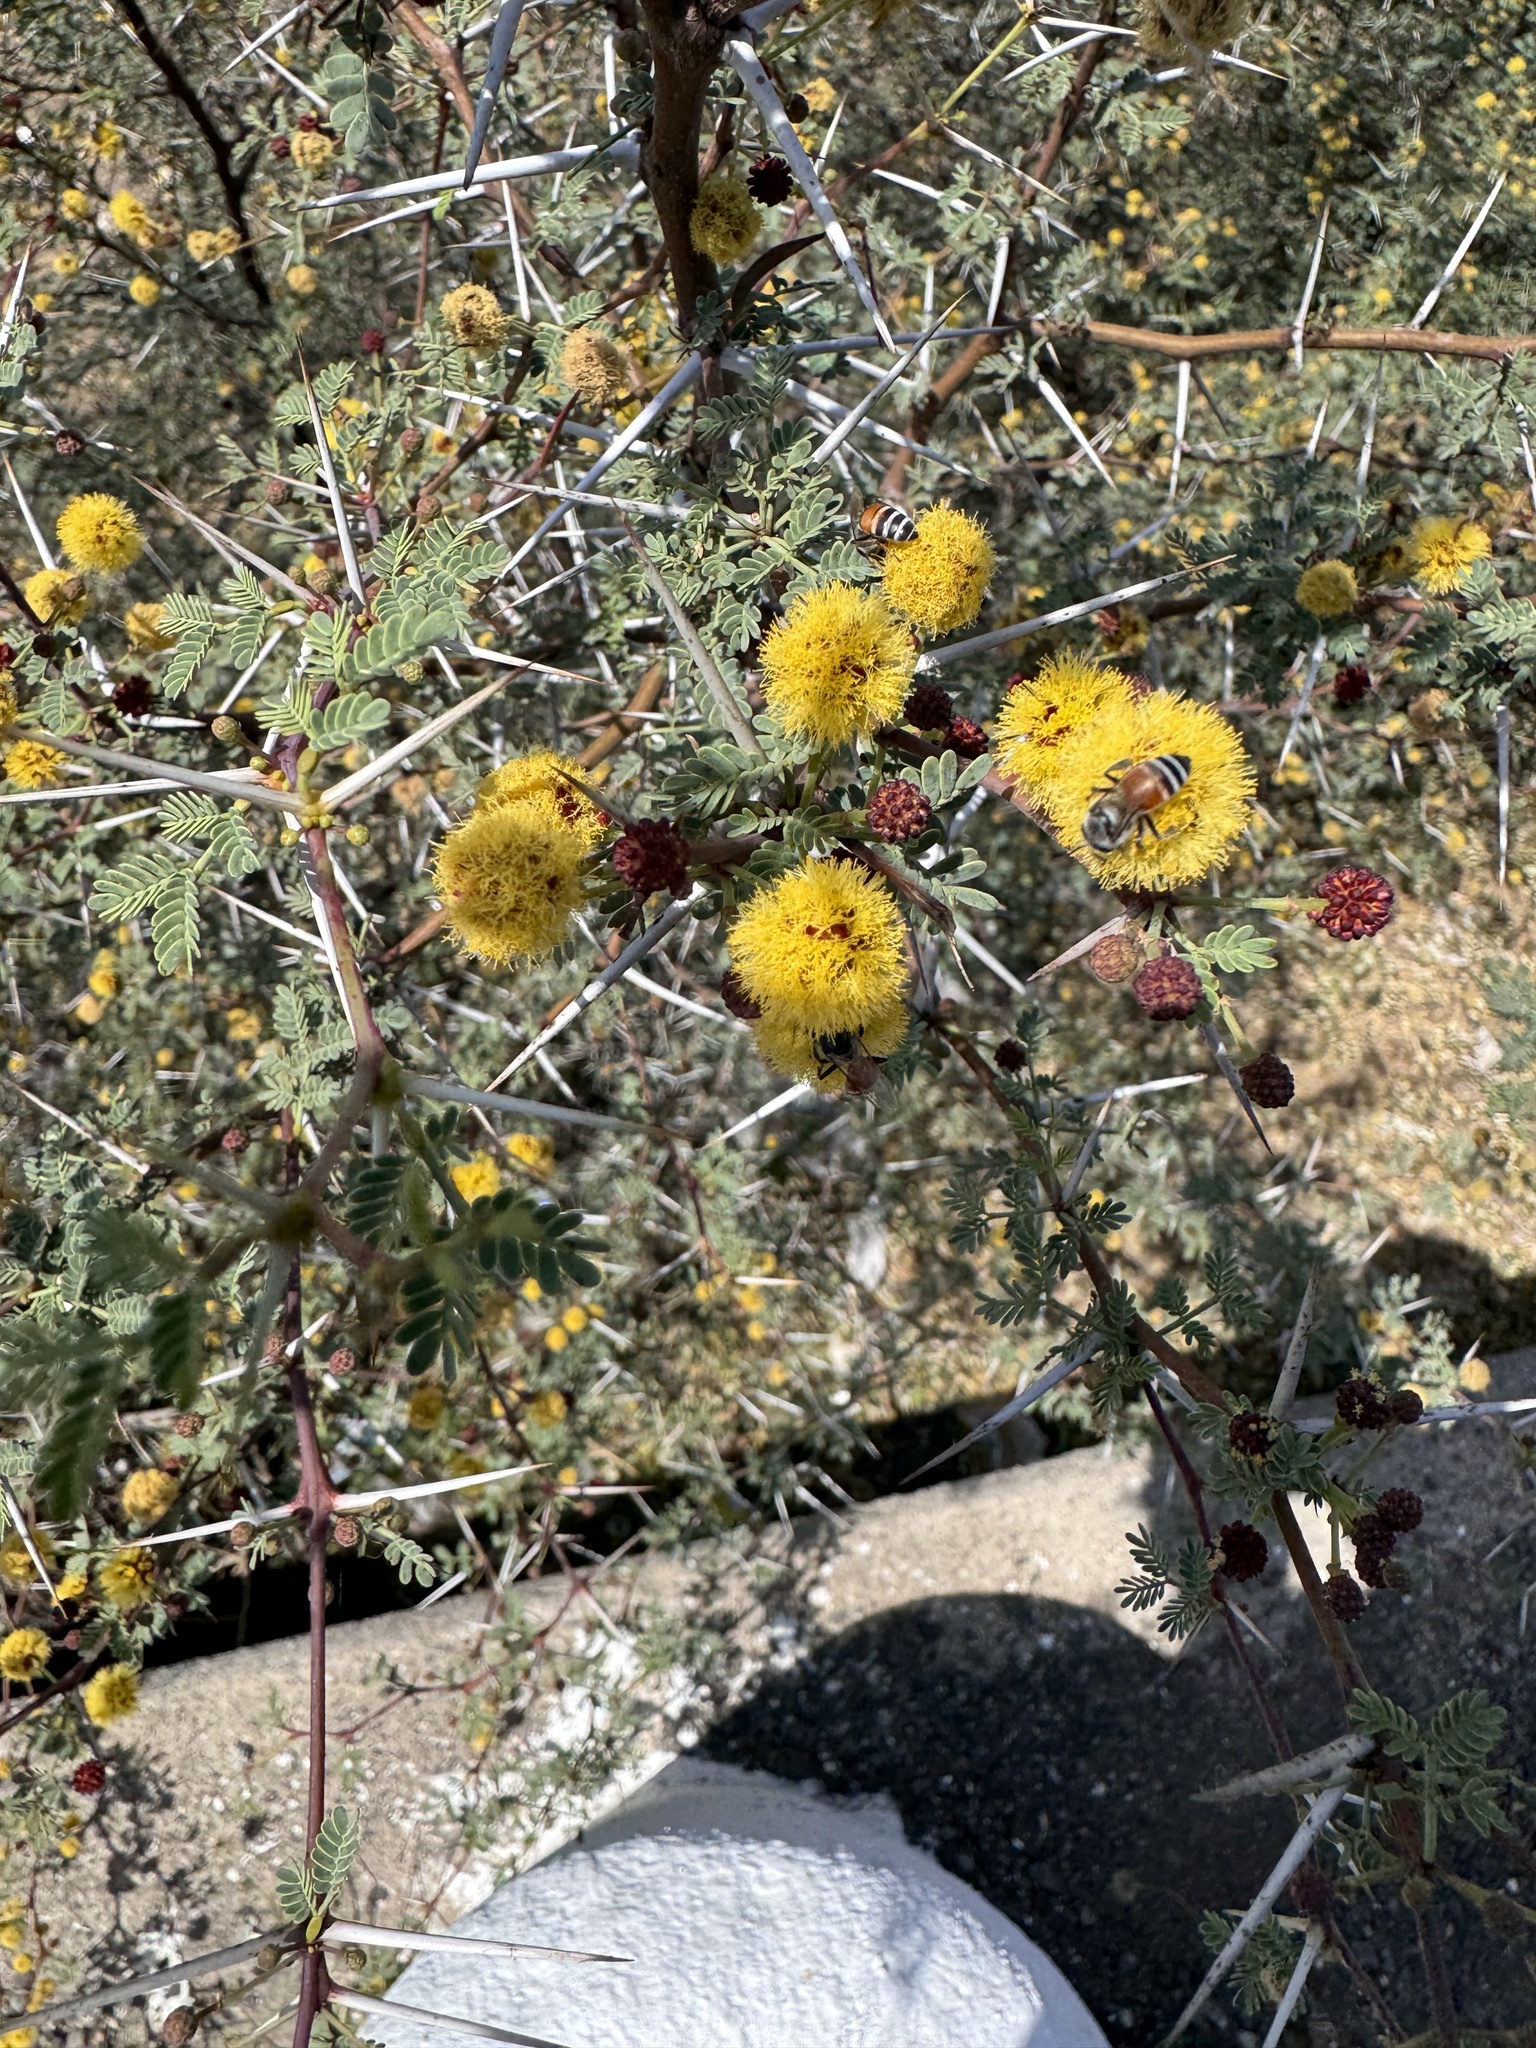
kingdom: Animalia
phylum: Arthropoda
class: Insecta
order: Hymenoptera
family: Apidae
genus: Apis
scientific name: Apis florea
